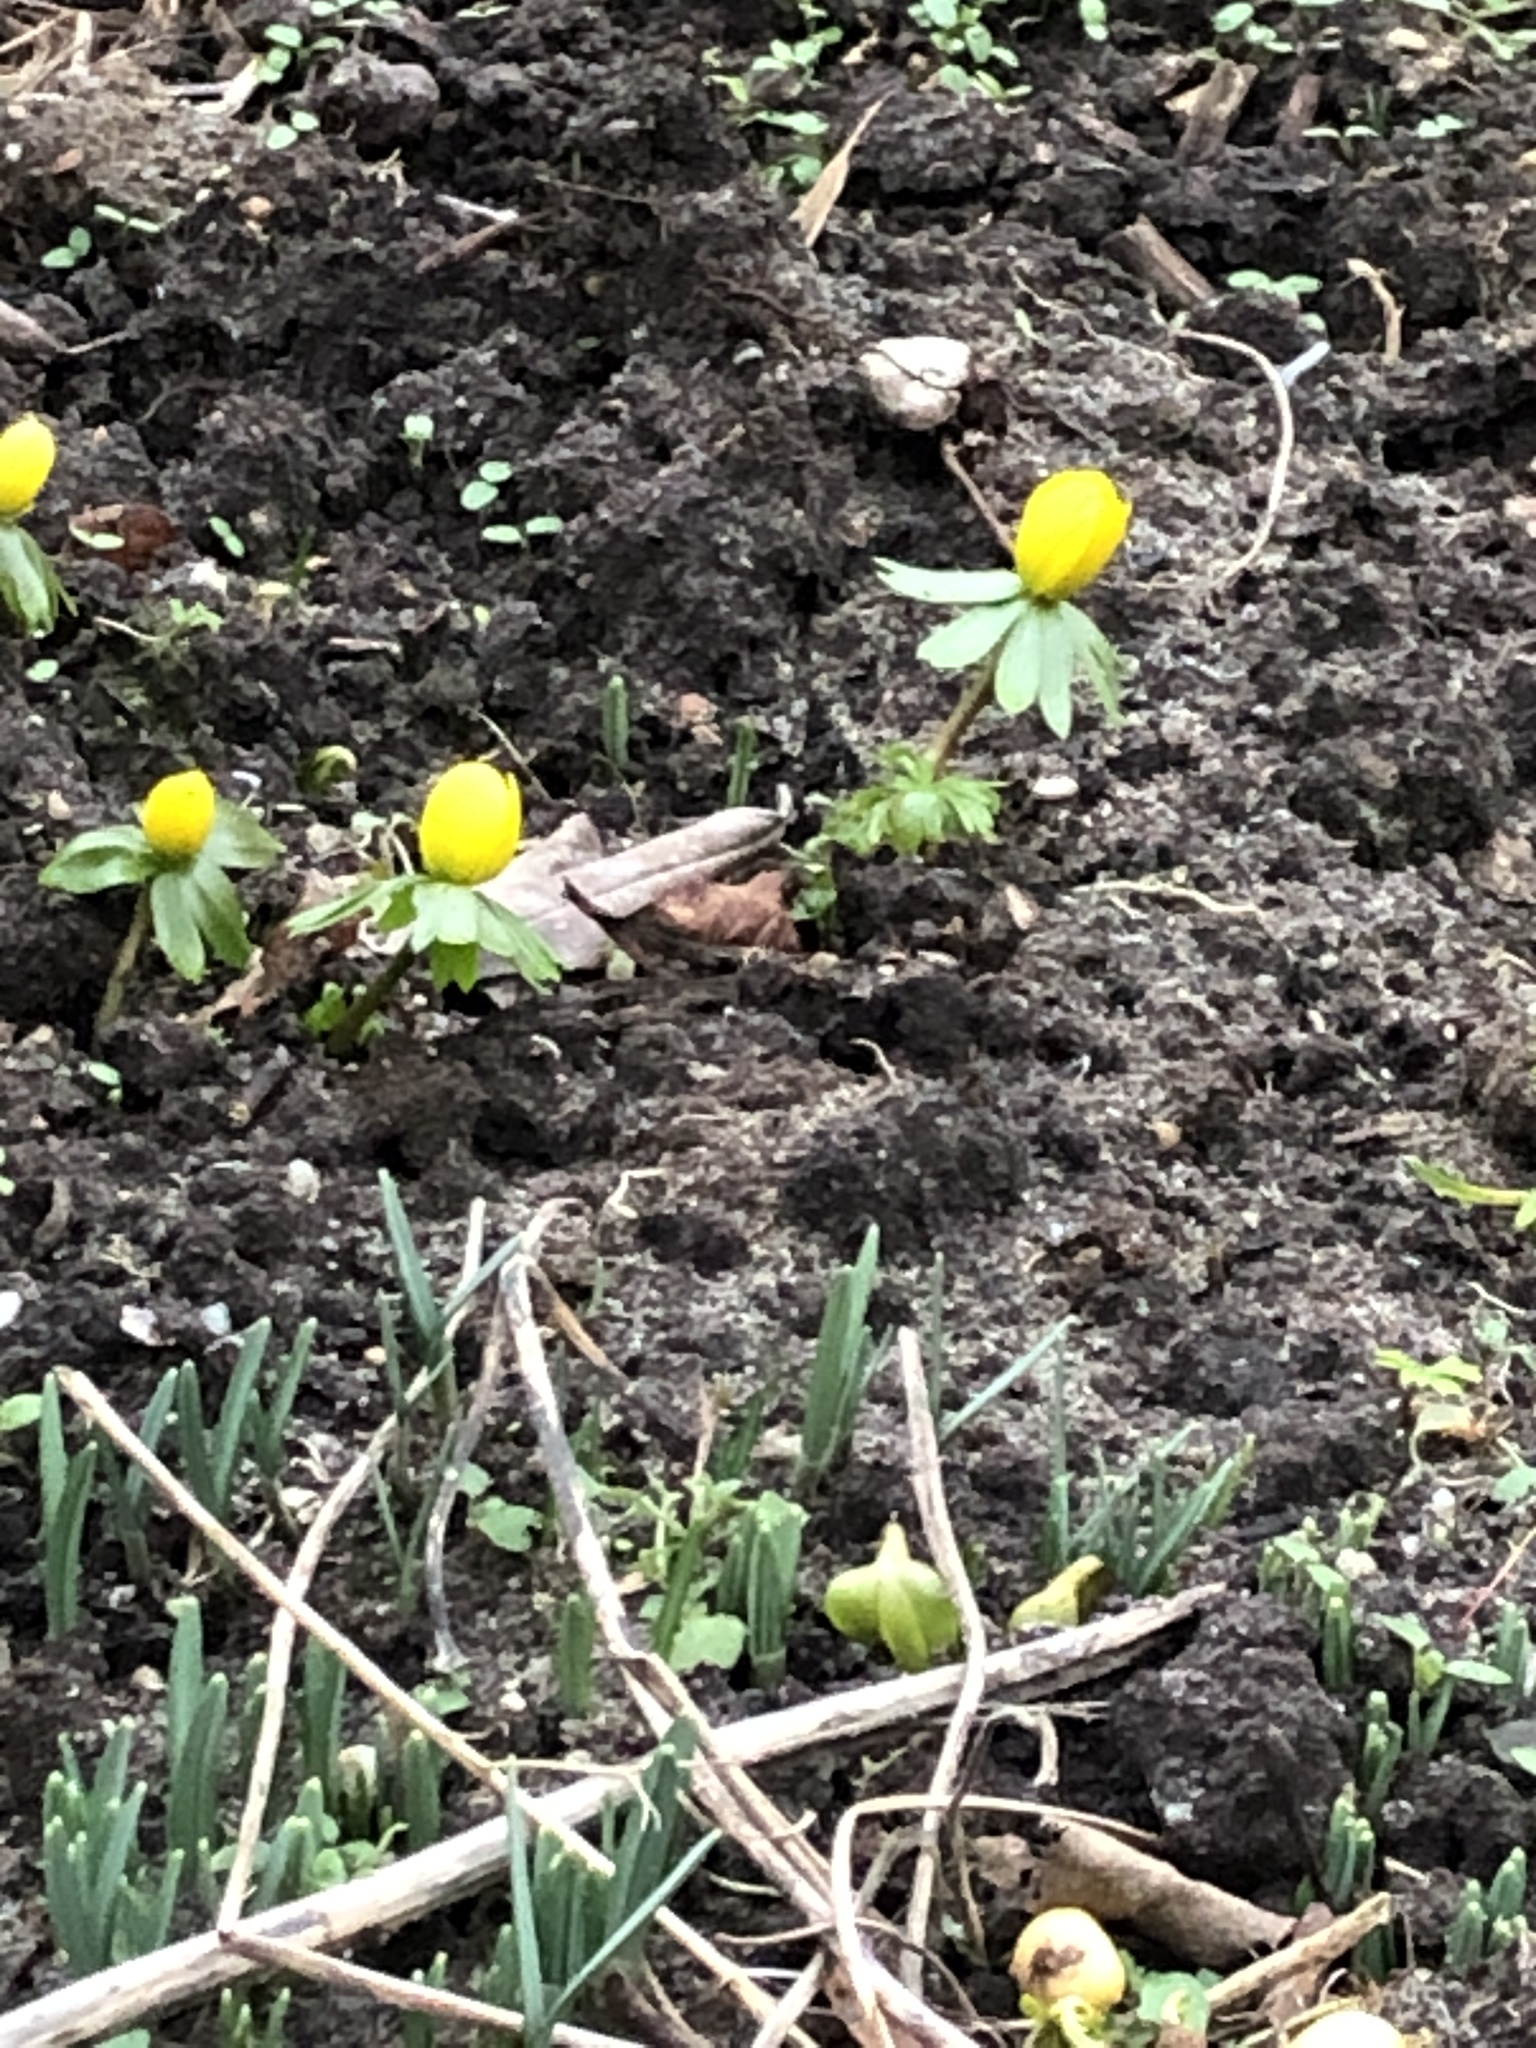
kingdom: Plantae
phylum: Tracheophyta
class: Magnoliopsida
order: Ranunculales
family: Ranunculaceae
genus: Eranthis
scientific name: Eranthis hyemalis
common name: Winter aconite
